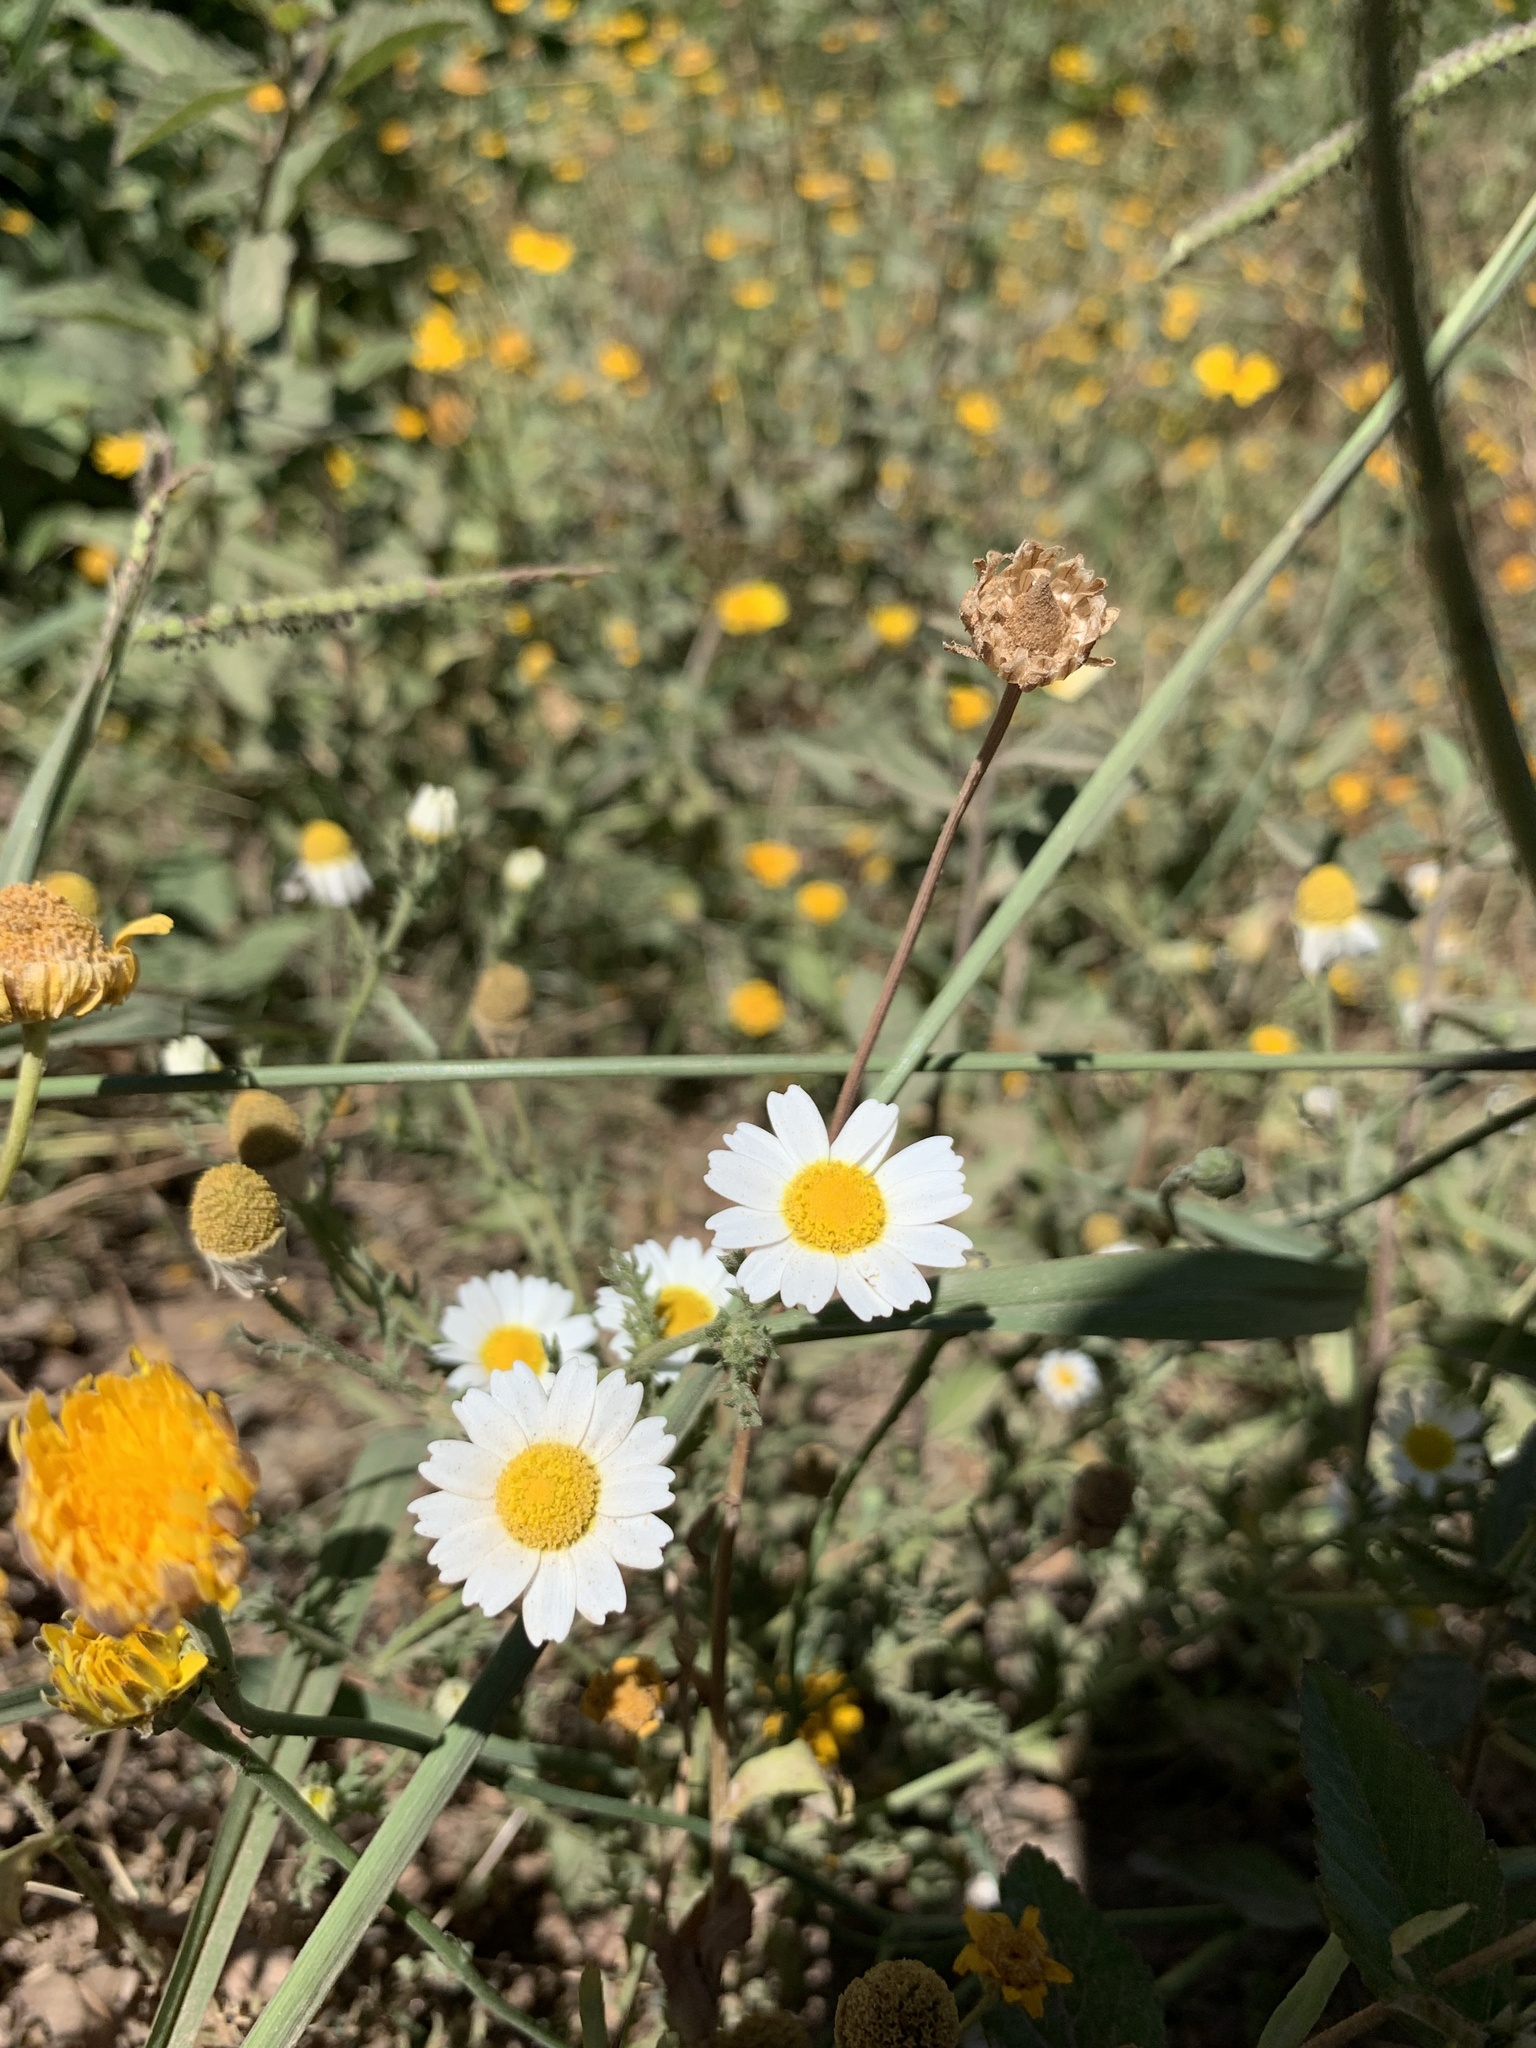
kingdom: Plantae
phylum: Tracheophyta
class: Magnoliopsida
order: Asterales
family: Asteraceae
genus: Cladanthus
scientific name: Cladanthus mixtus
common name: Weedy dogfennel
